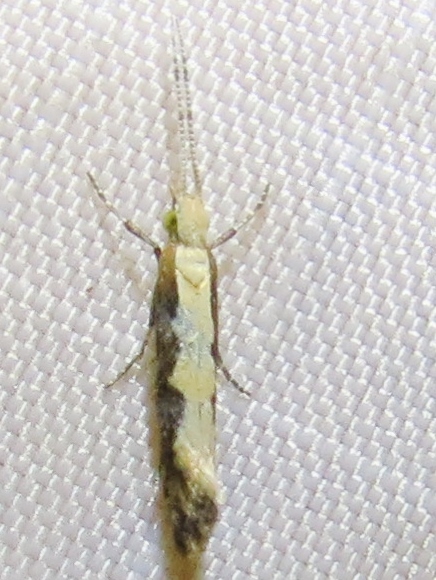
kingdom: Animalia
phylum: Arthropoda
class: Insecta
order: Lepidoptera
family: Plutellidae
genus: Plutella
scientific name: Plutella xylostella
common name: Diamond-back moth
